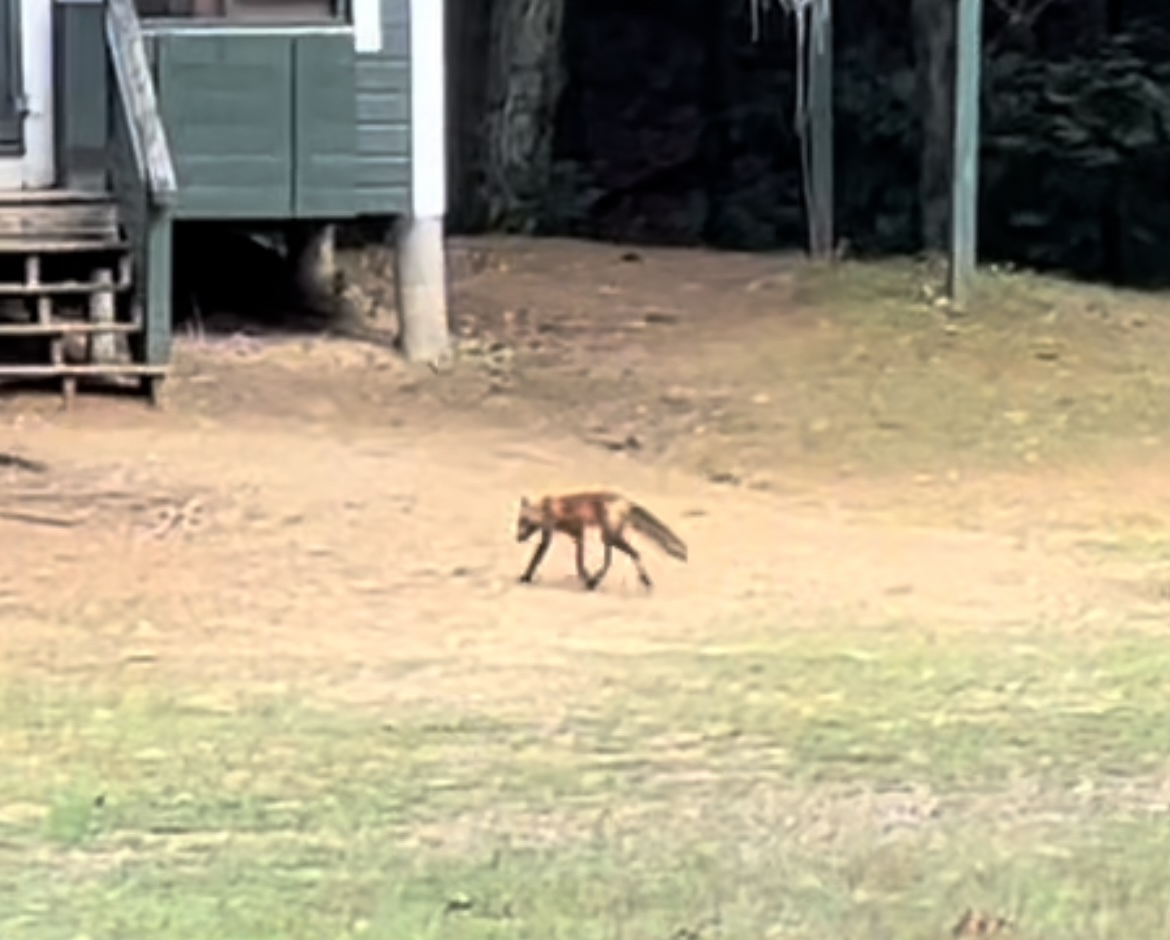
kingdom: Animalia
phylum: Chordata
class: Mammalia
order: Carnivora
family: Canidae
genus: Vulpes
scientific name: Vulpes vulpes
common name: Red fox
